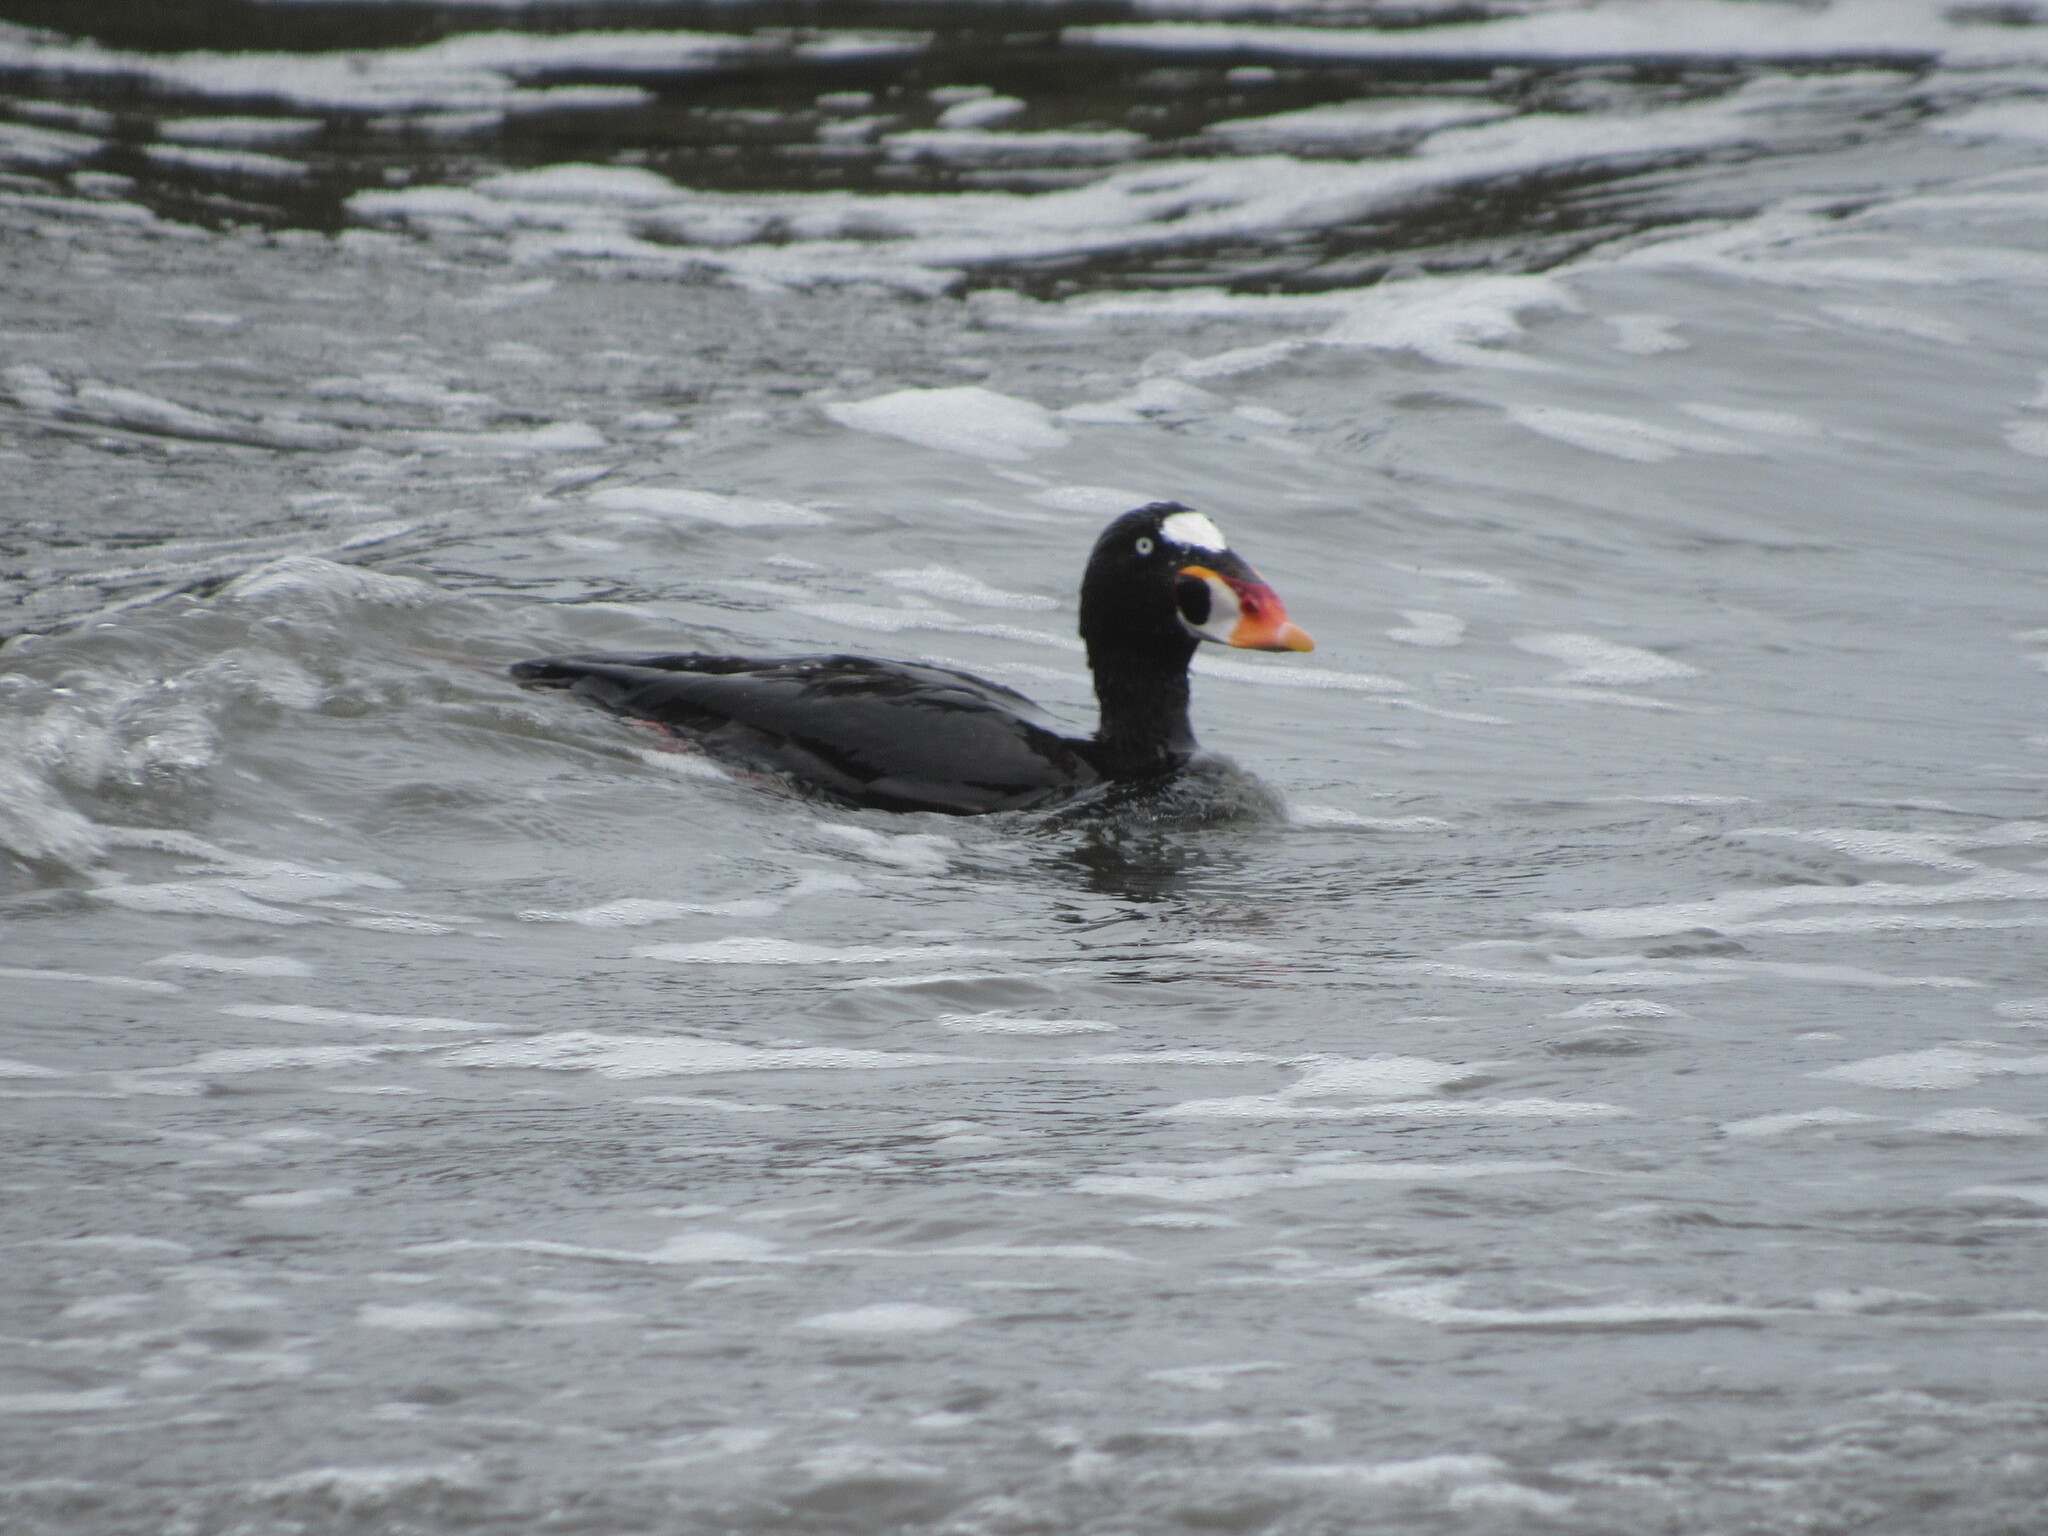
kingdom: Animalia
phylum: Chordata
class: Aves
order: Anseriformes
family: Anatidae
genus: Melanitta
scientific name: Melanitta perspicillata
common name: Surf scoter
